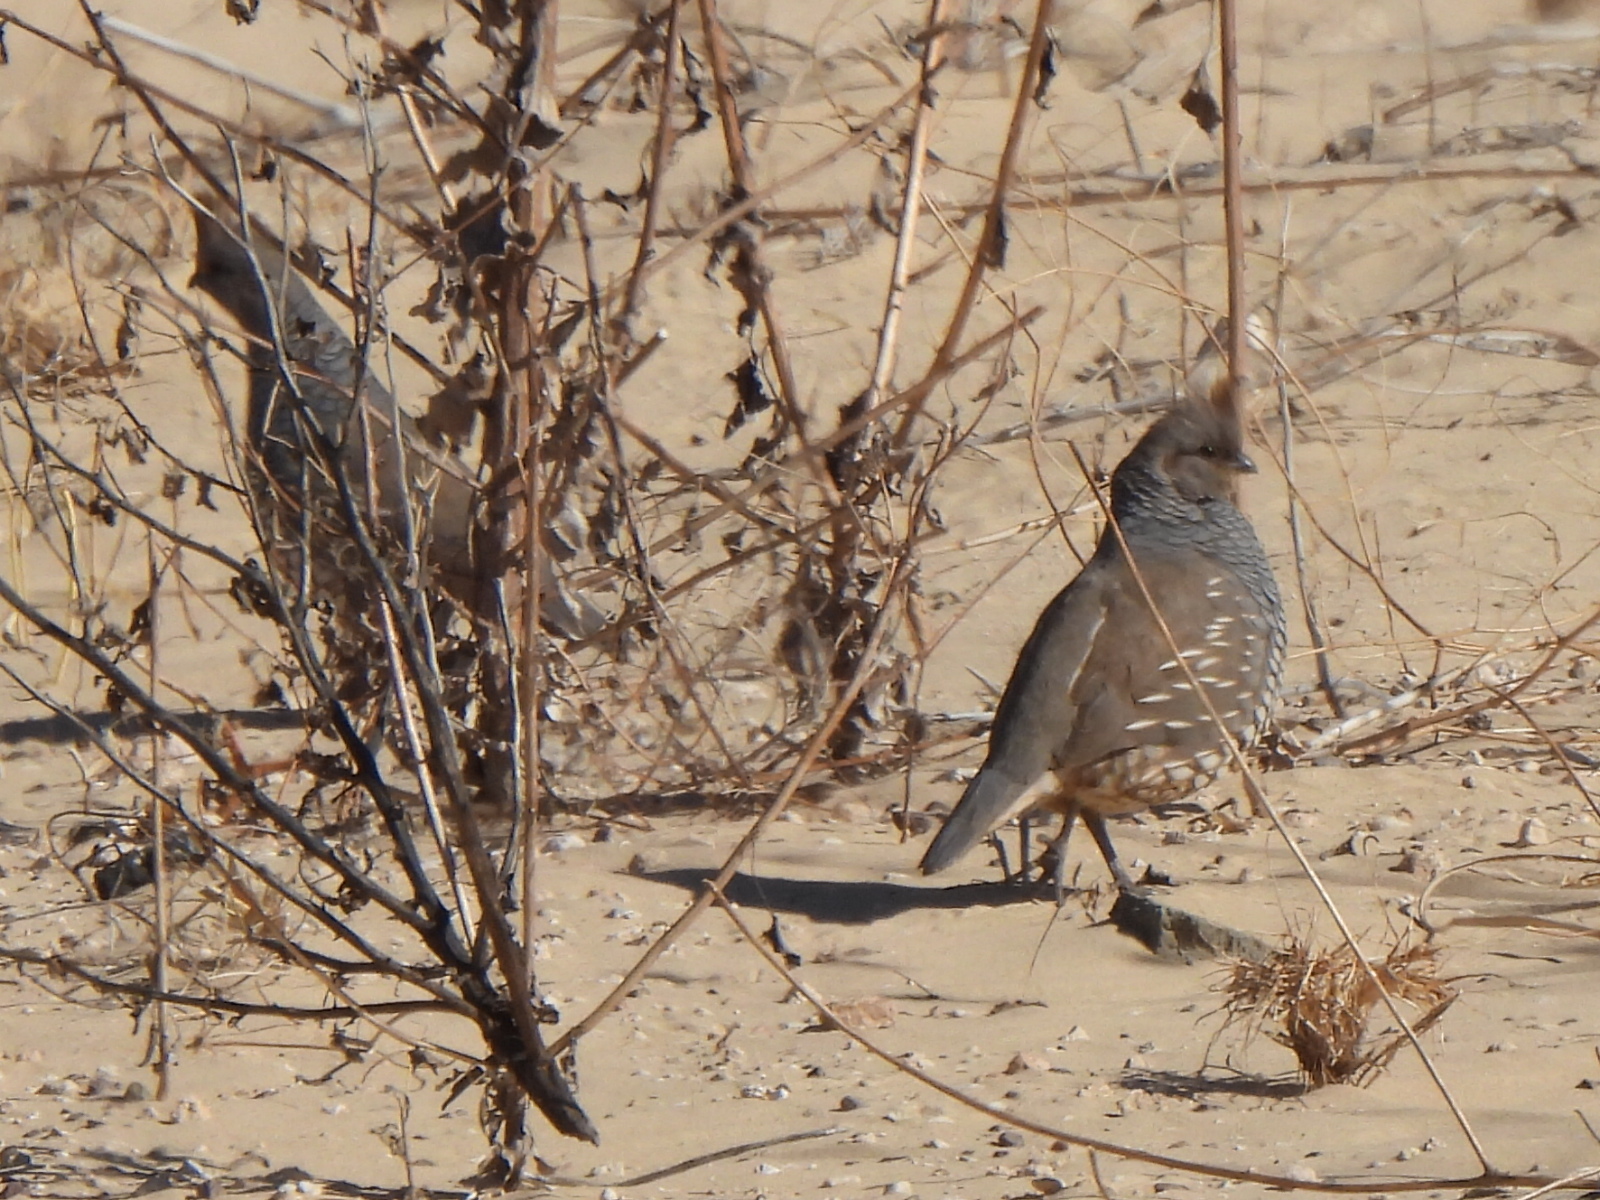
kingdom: Animalia
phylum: Chordata
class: Aves
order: Galliformes
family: Odontophoridae
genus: Callipepla
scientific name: Callipepla squamata
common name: Scaled quail
